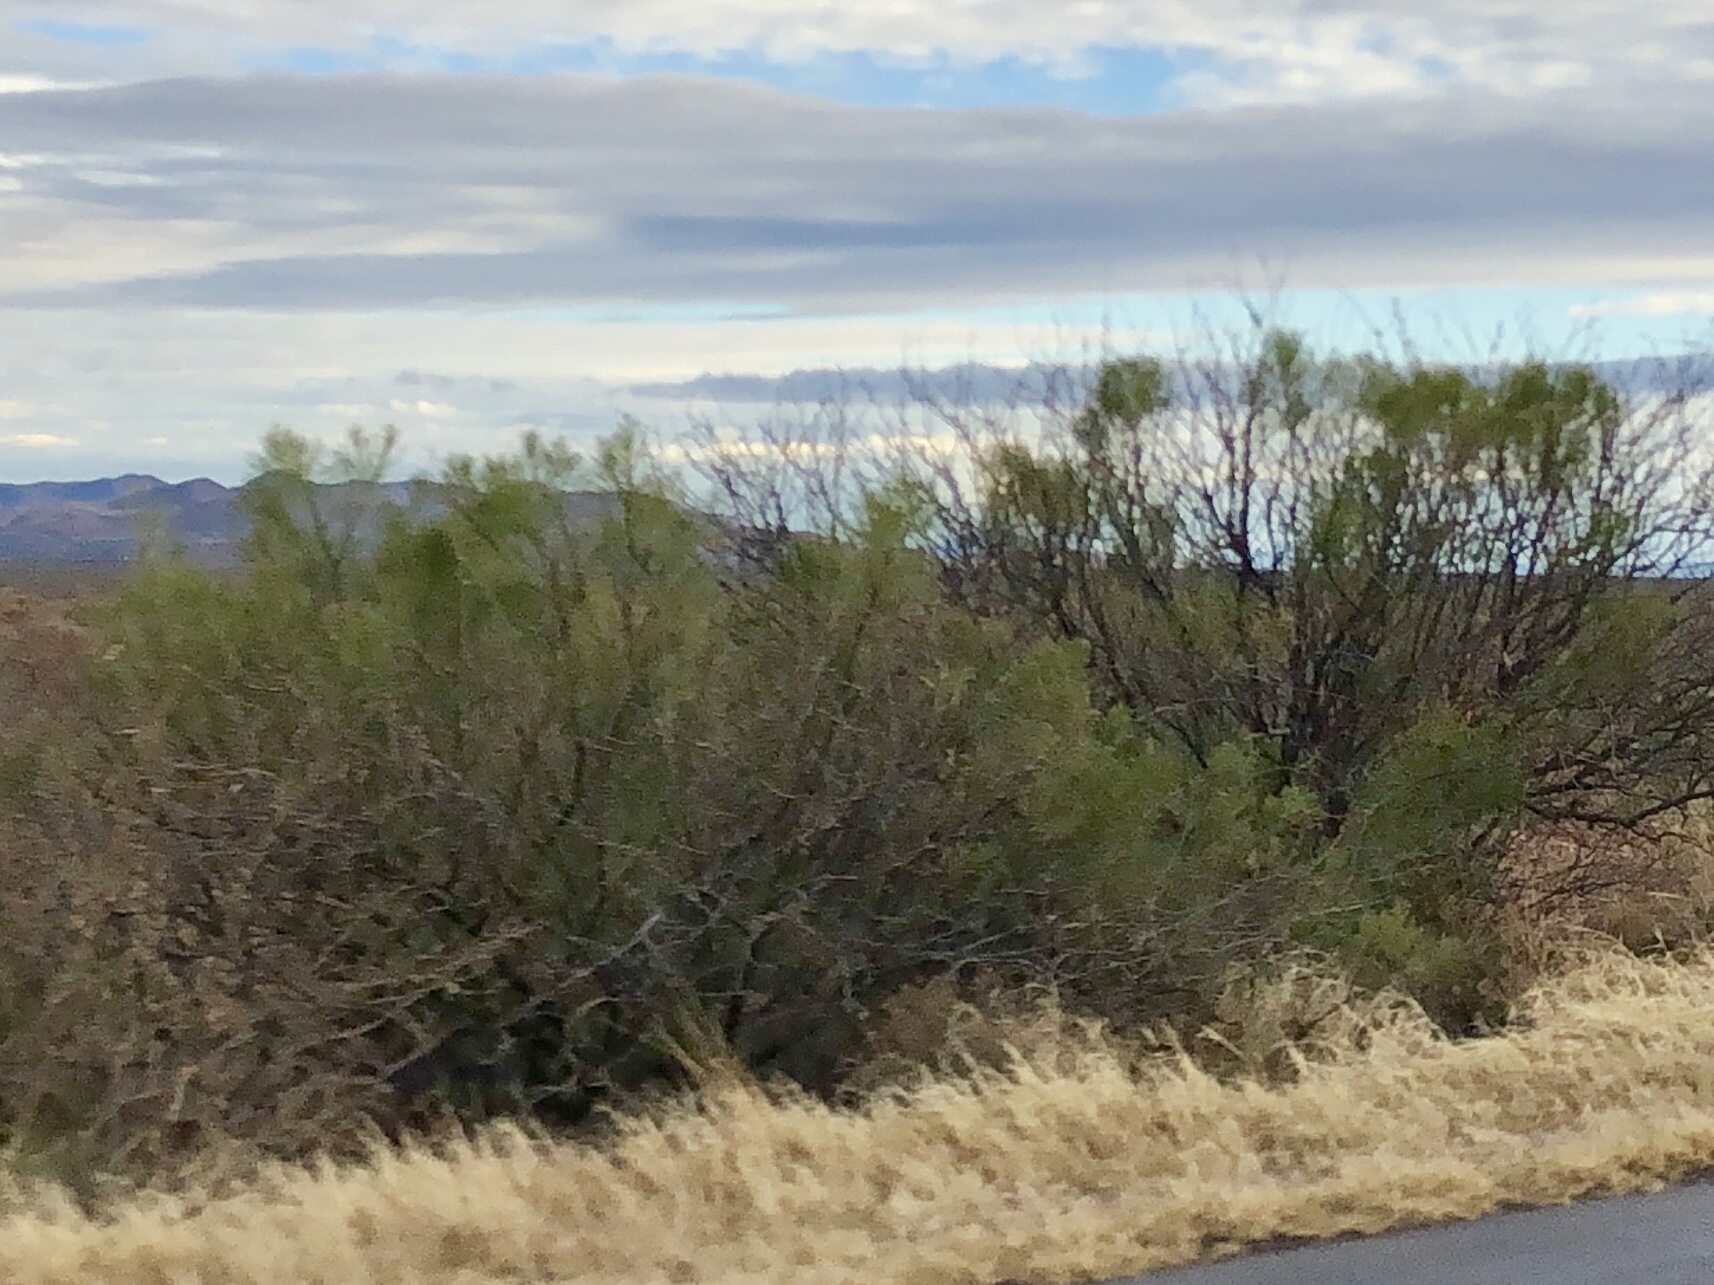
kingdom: Plantae
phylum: Tracheophyta
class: Magnoliopsida
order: Asterales
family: Asteraceae
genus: Baccharis
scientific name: Baccharis sarothroides
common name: Desert-broom
